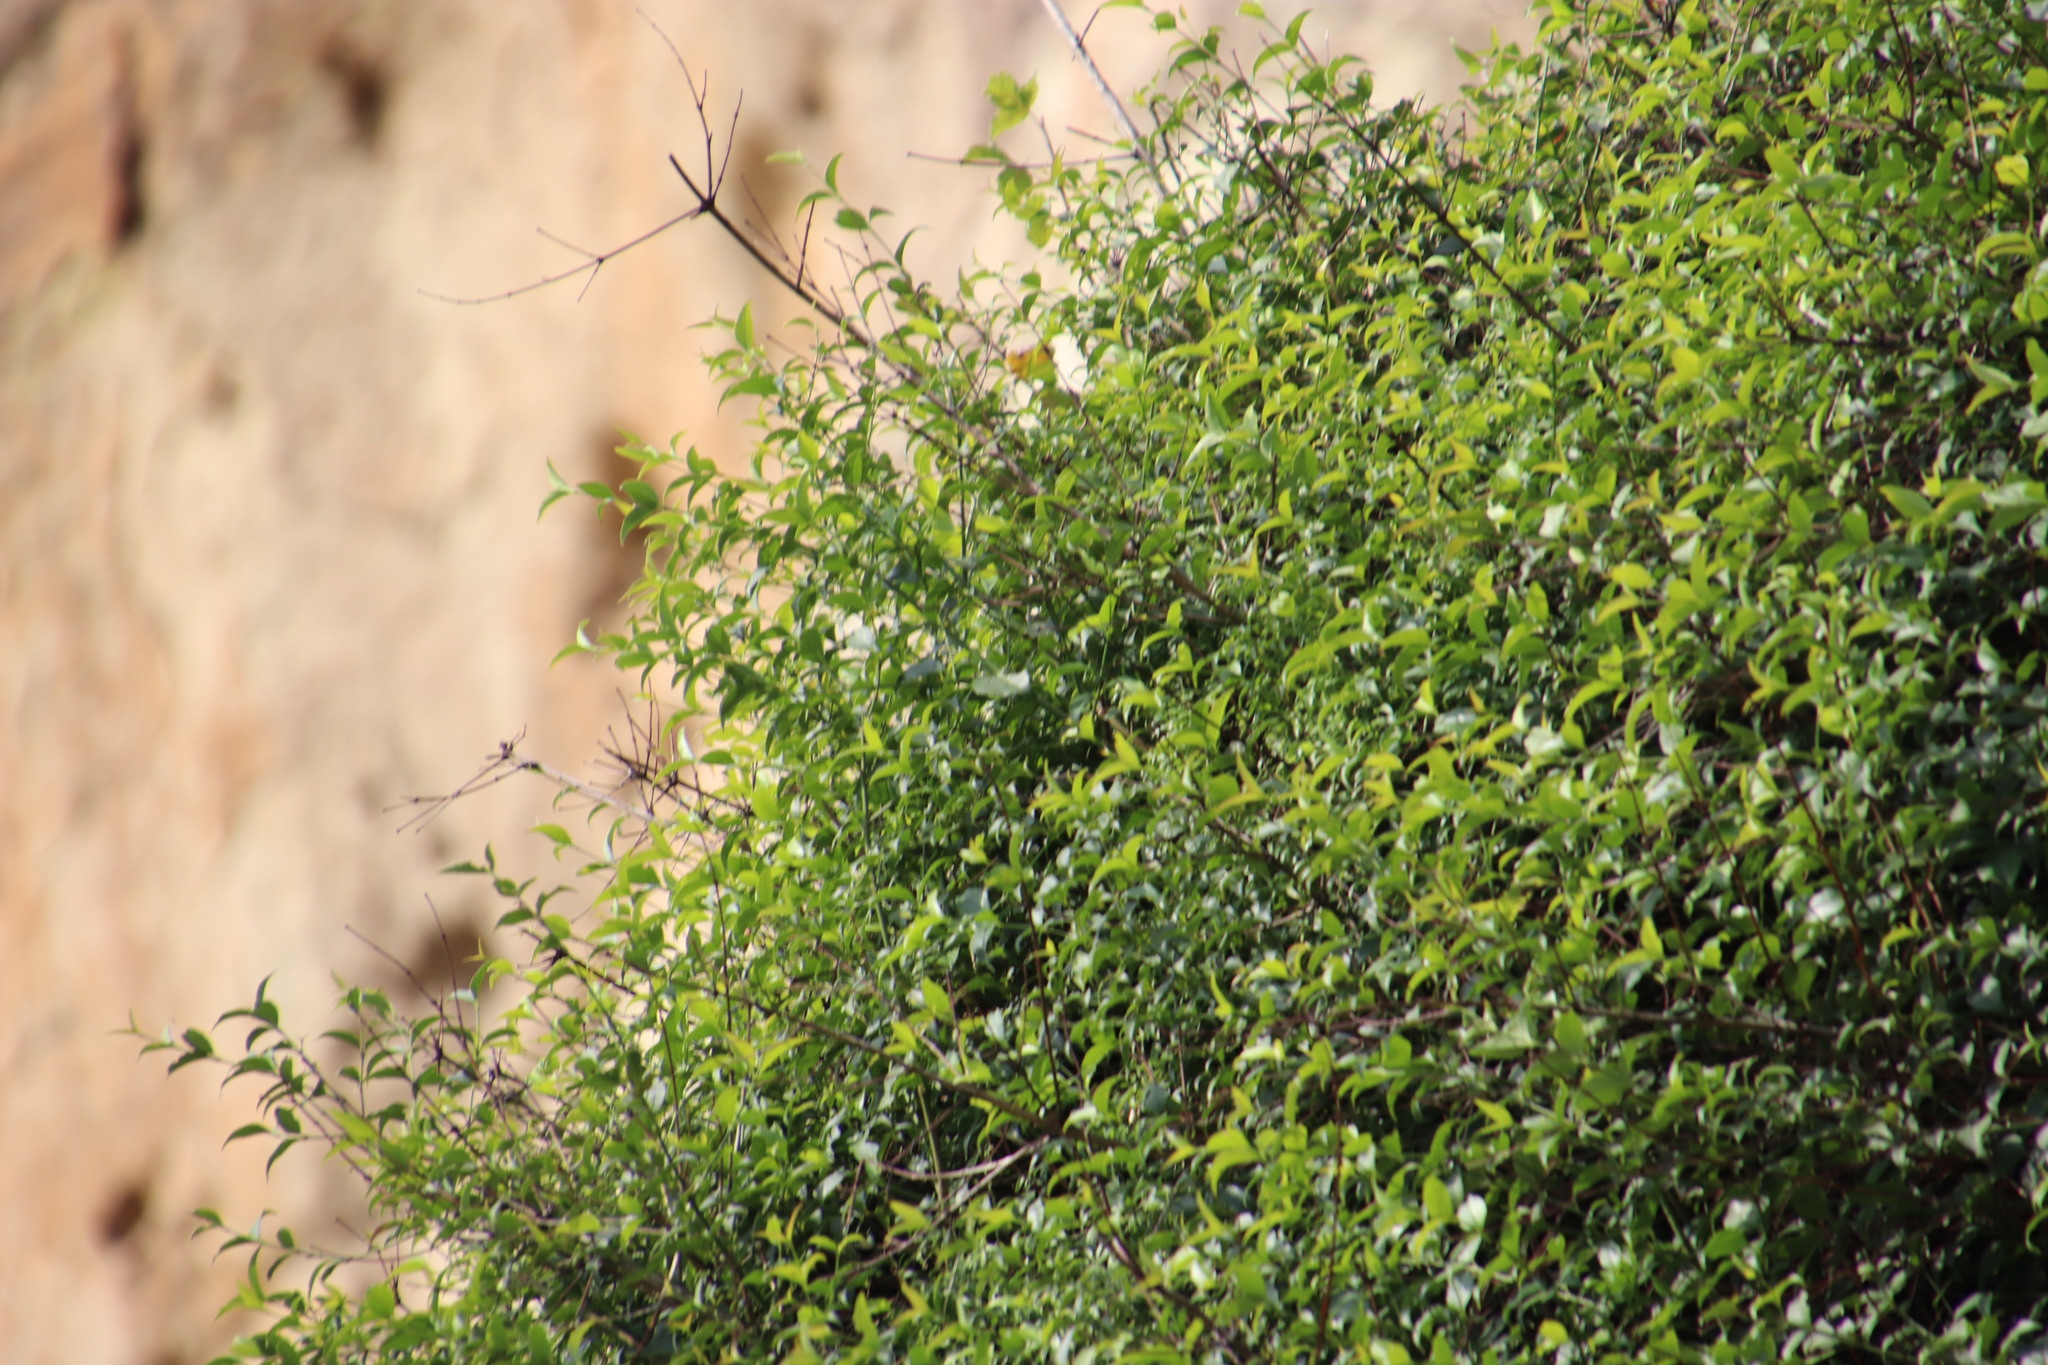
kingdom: Plantae
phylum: Tracheophyta
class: Magnoliopsida
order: Lamiales
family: Stilbaceae
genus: Halleria
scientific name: Halleria lucida
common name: Tree fuschia
